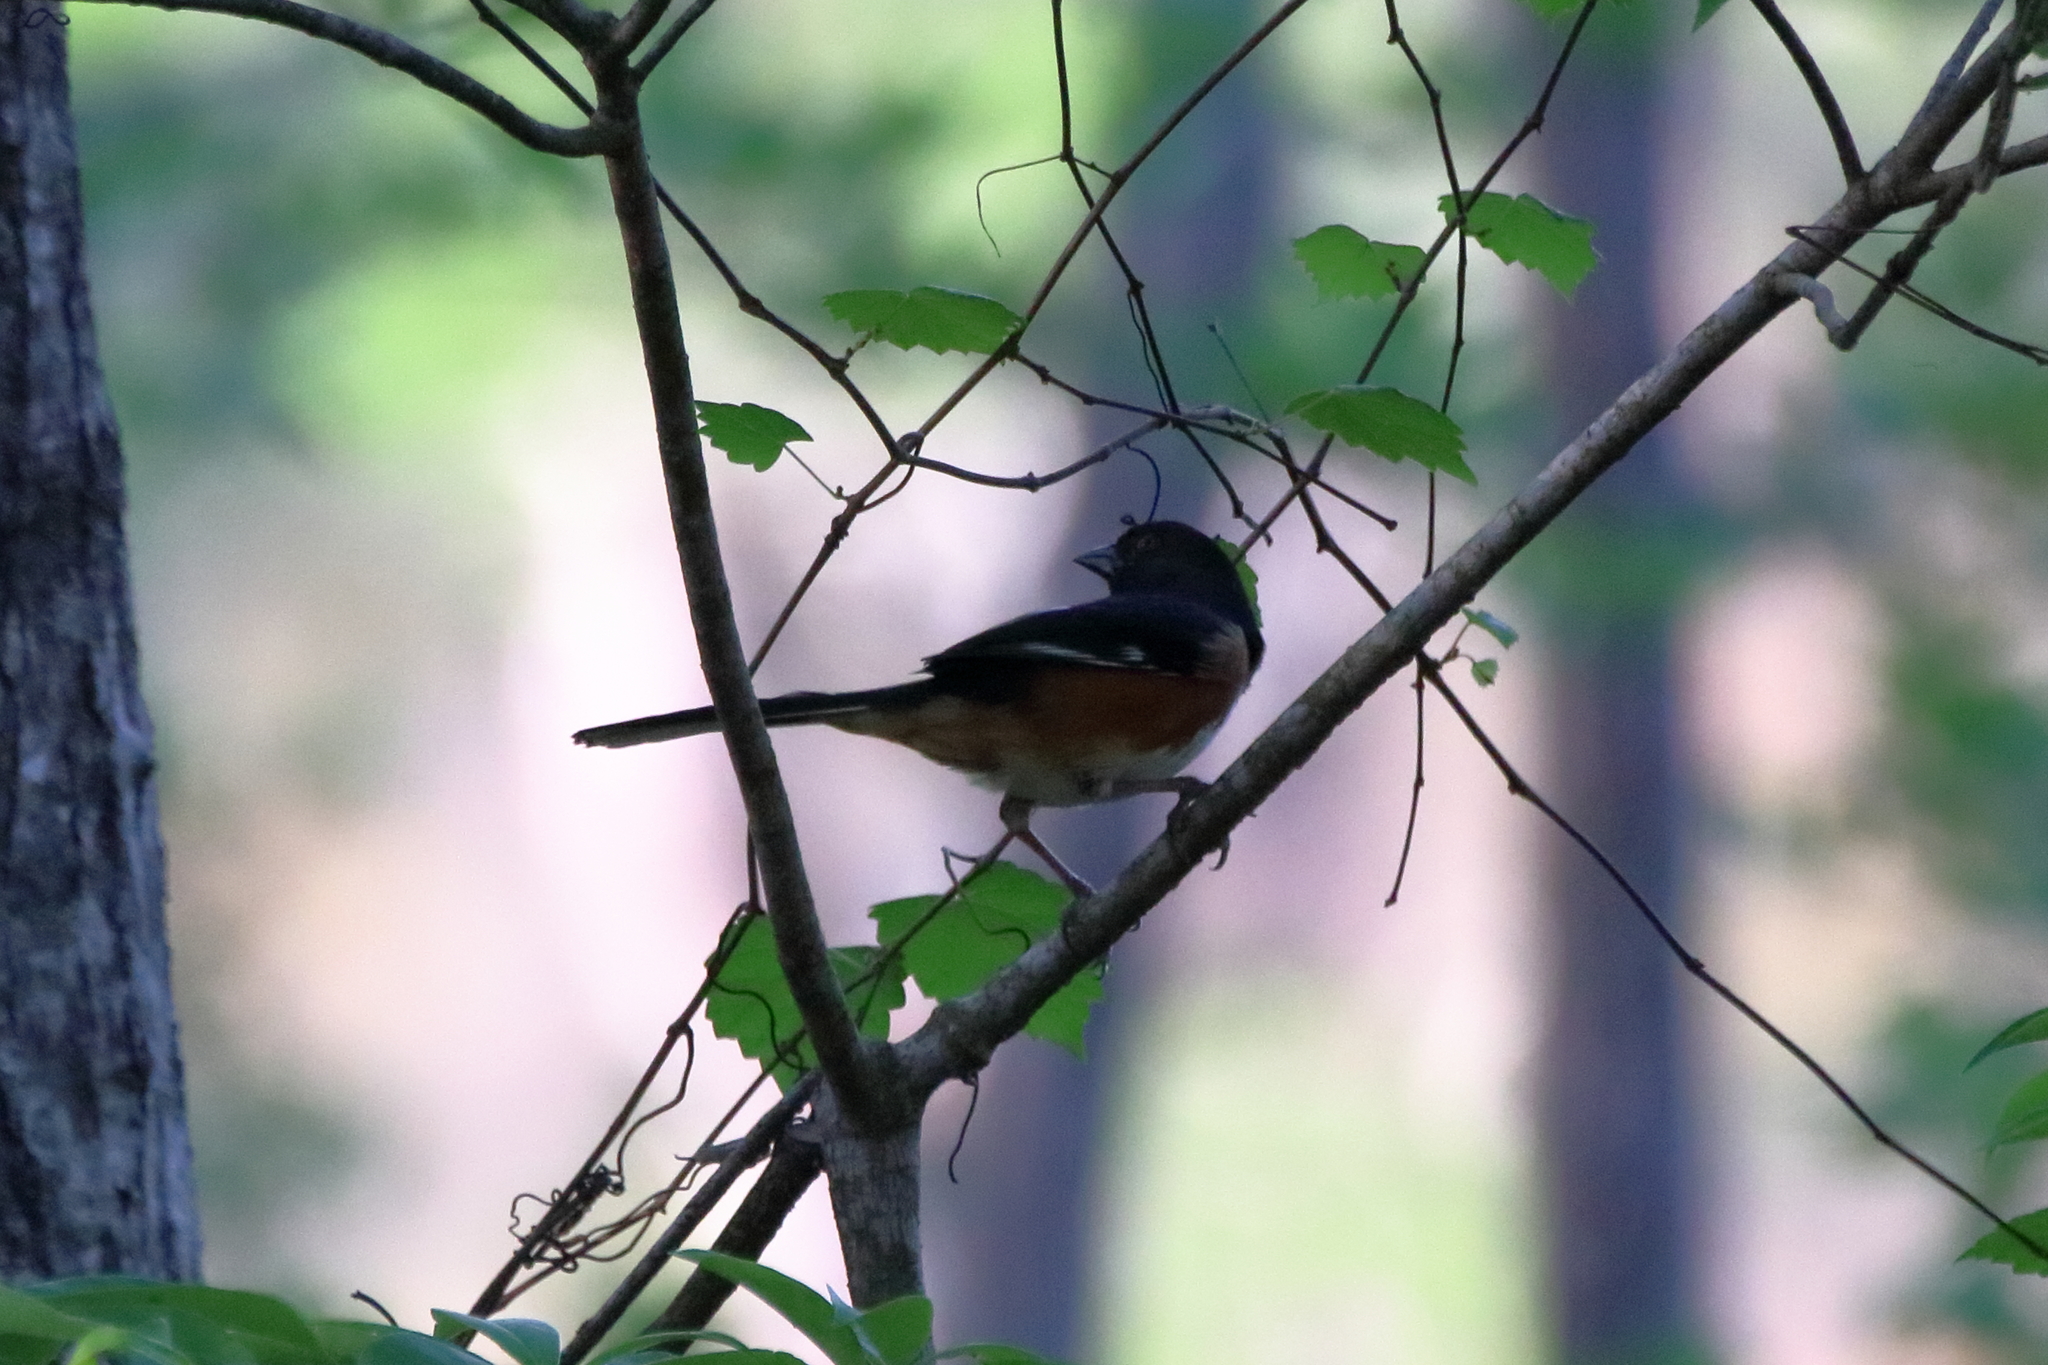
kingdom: Animalia
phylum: Chordata
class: Aves
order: Passeriformes
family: Passerellidae
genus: Pipilo
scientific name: Pipilo erythrophthalmus
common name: Eastern towhee
